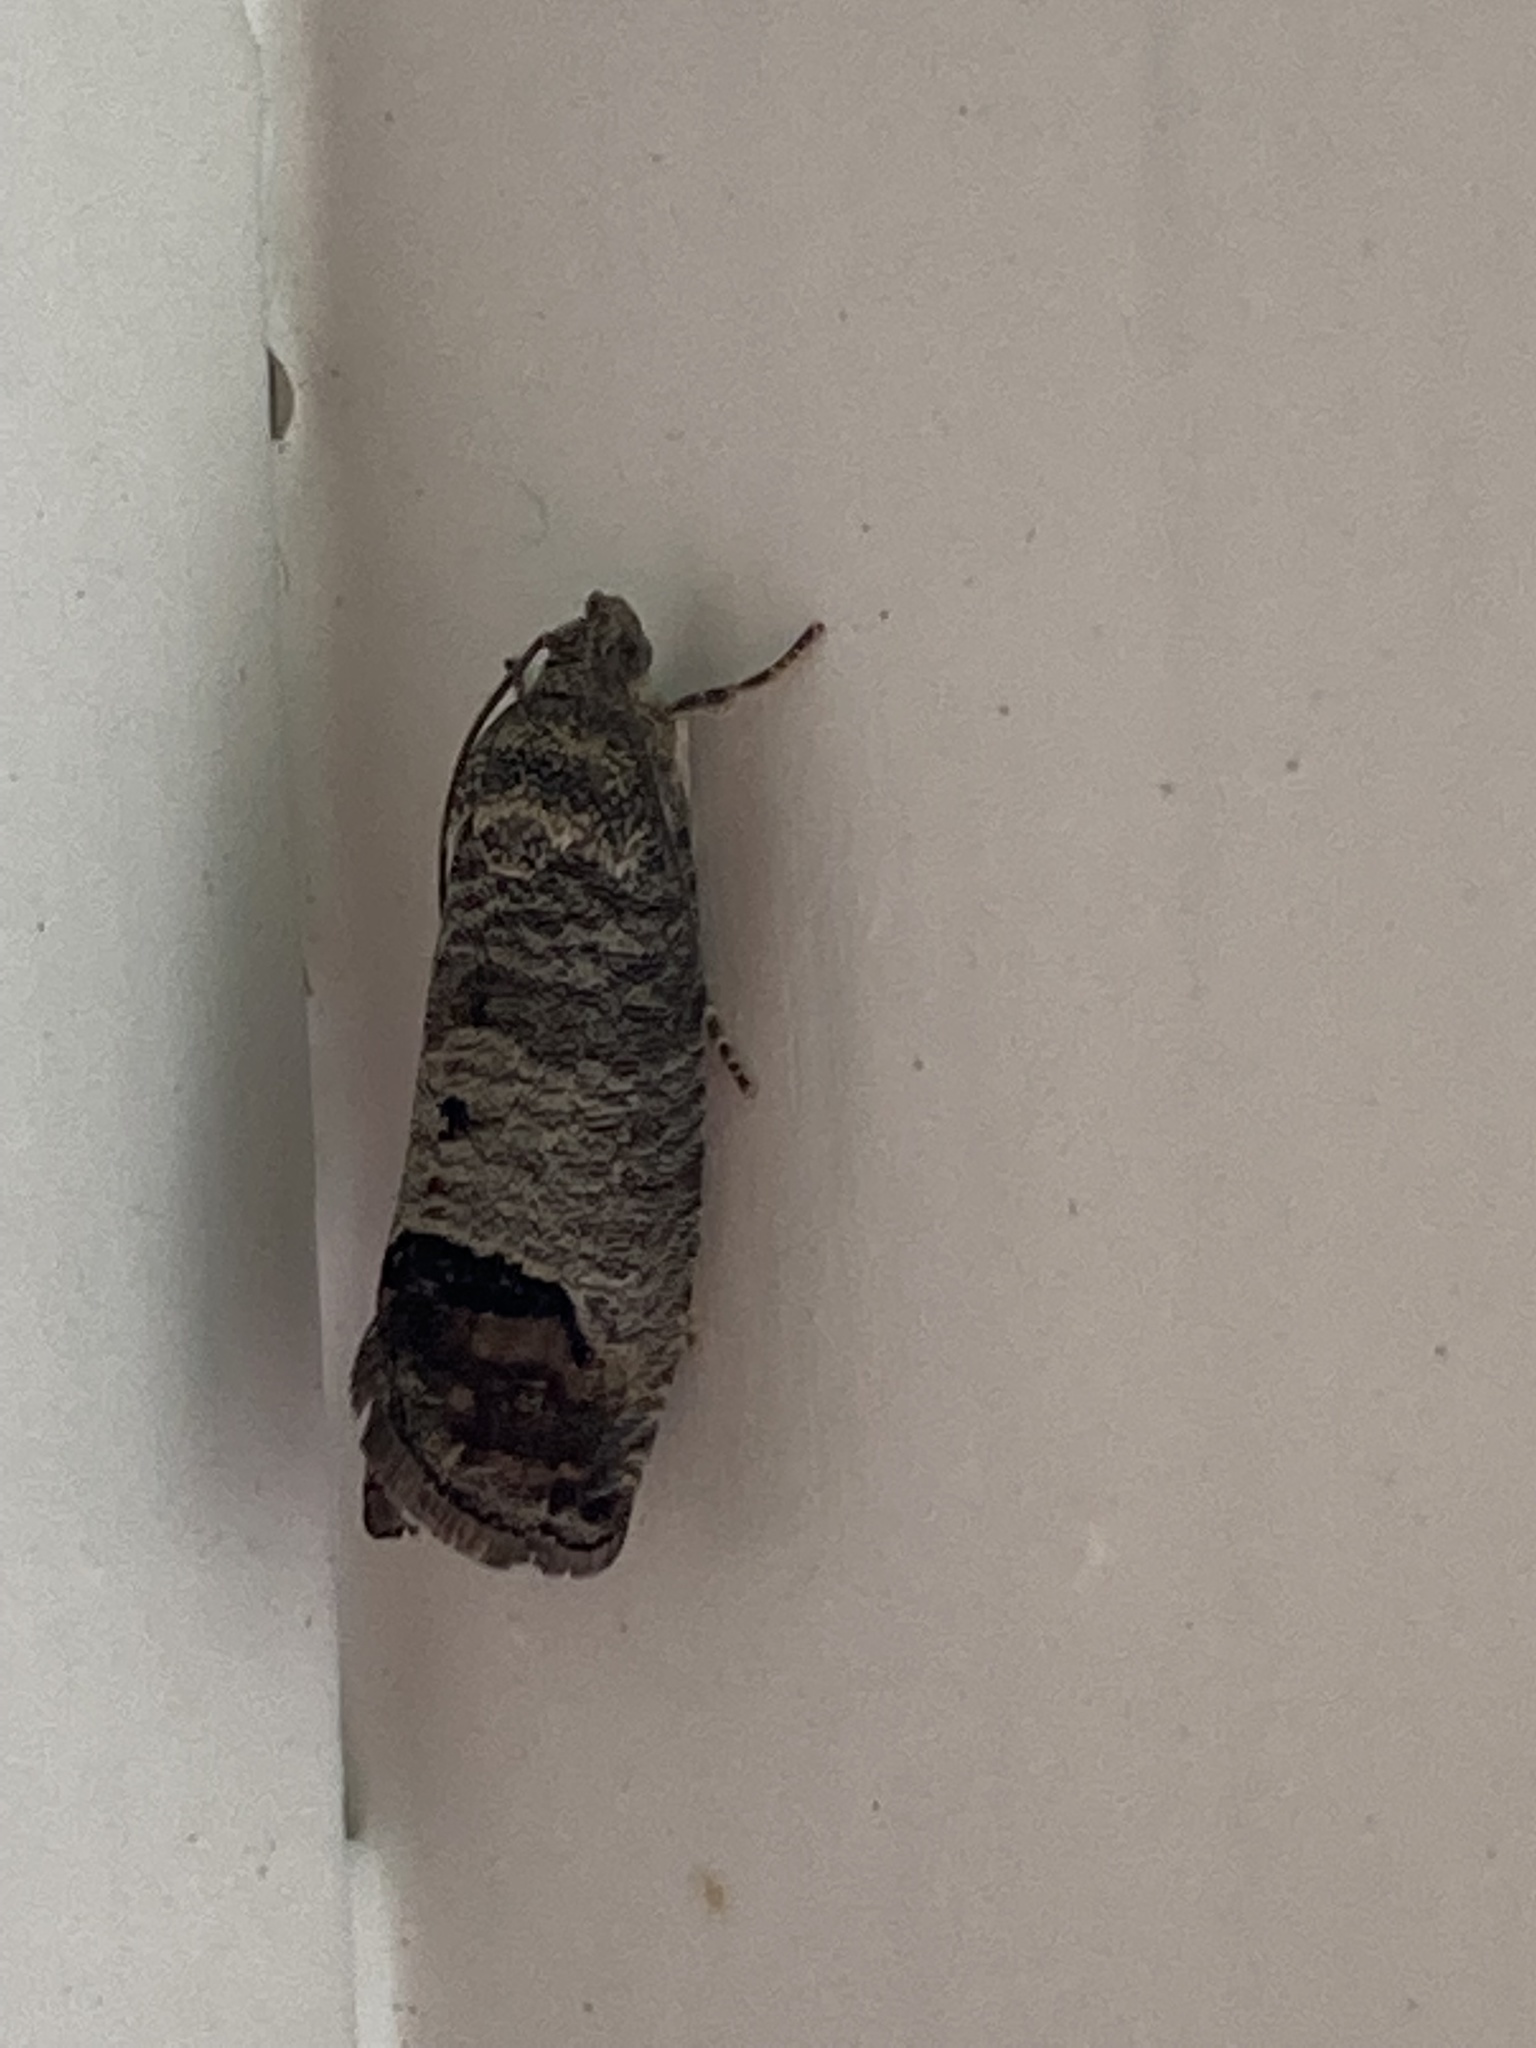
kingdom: Animalia
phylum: Arthropoda
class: Insecta
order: Lepidoptera
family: Tortricidae
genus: Cydia
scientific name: Cydia pomonella
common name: Codling moth
